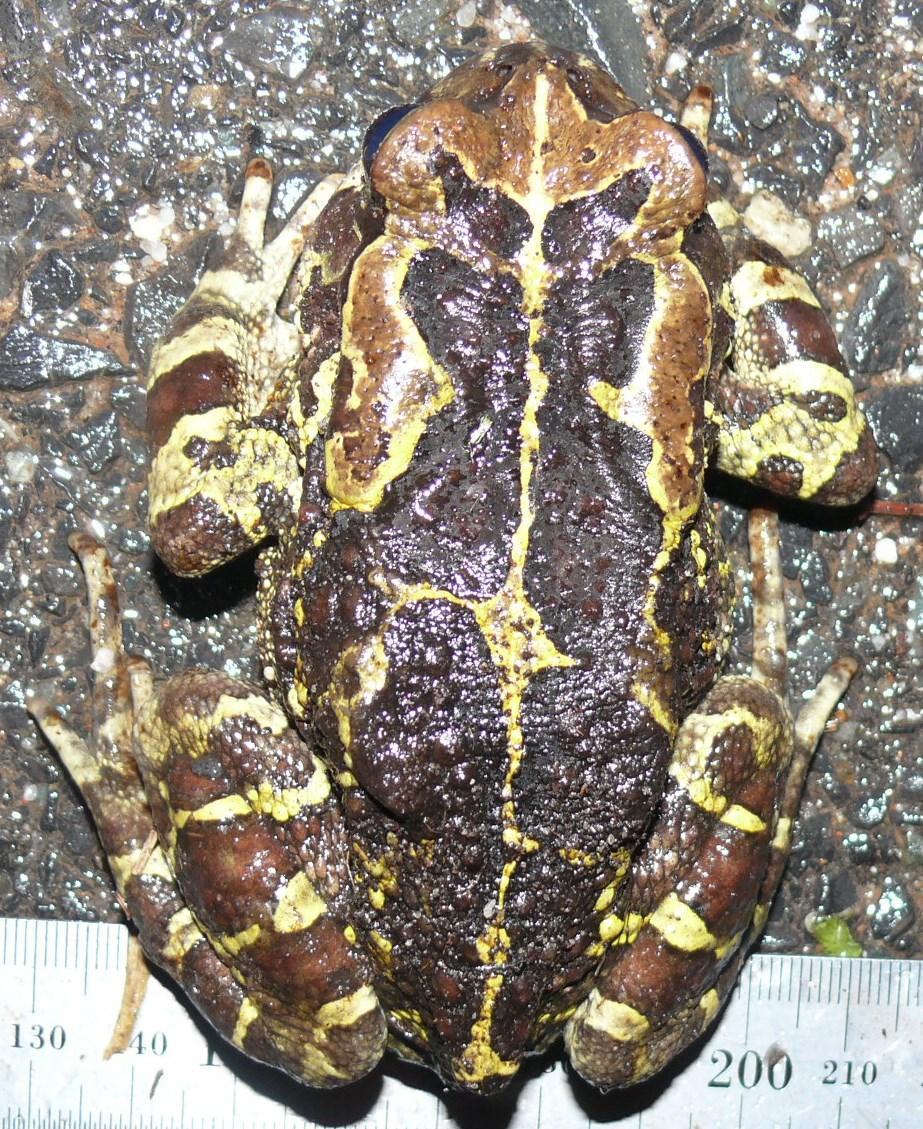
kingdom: Animalia
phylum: Chordata
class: Amphibia
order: Anura
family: Bufonidae
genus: Sclerophrys
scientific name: Sclerophrys pantherina
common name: Panther toad
